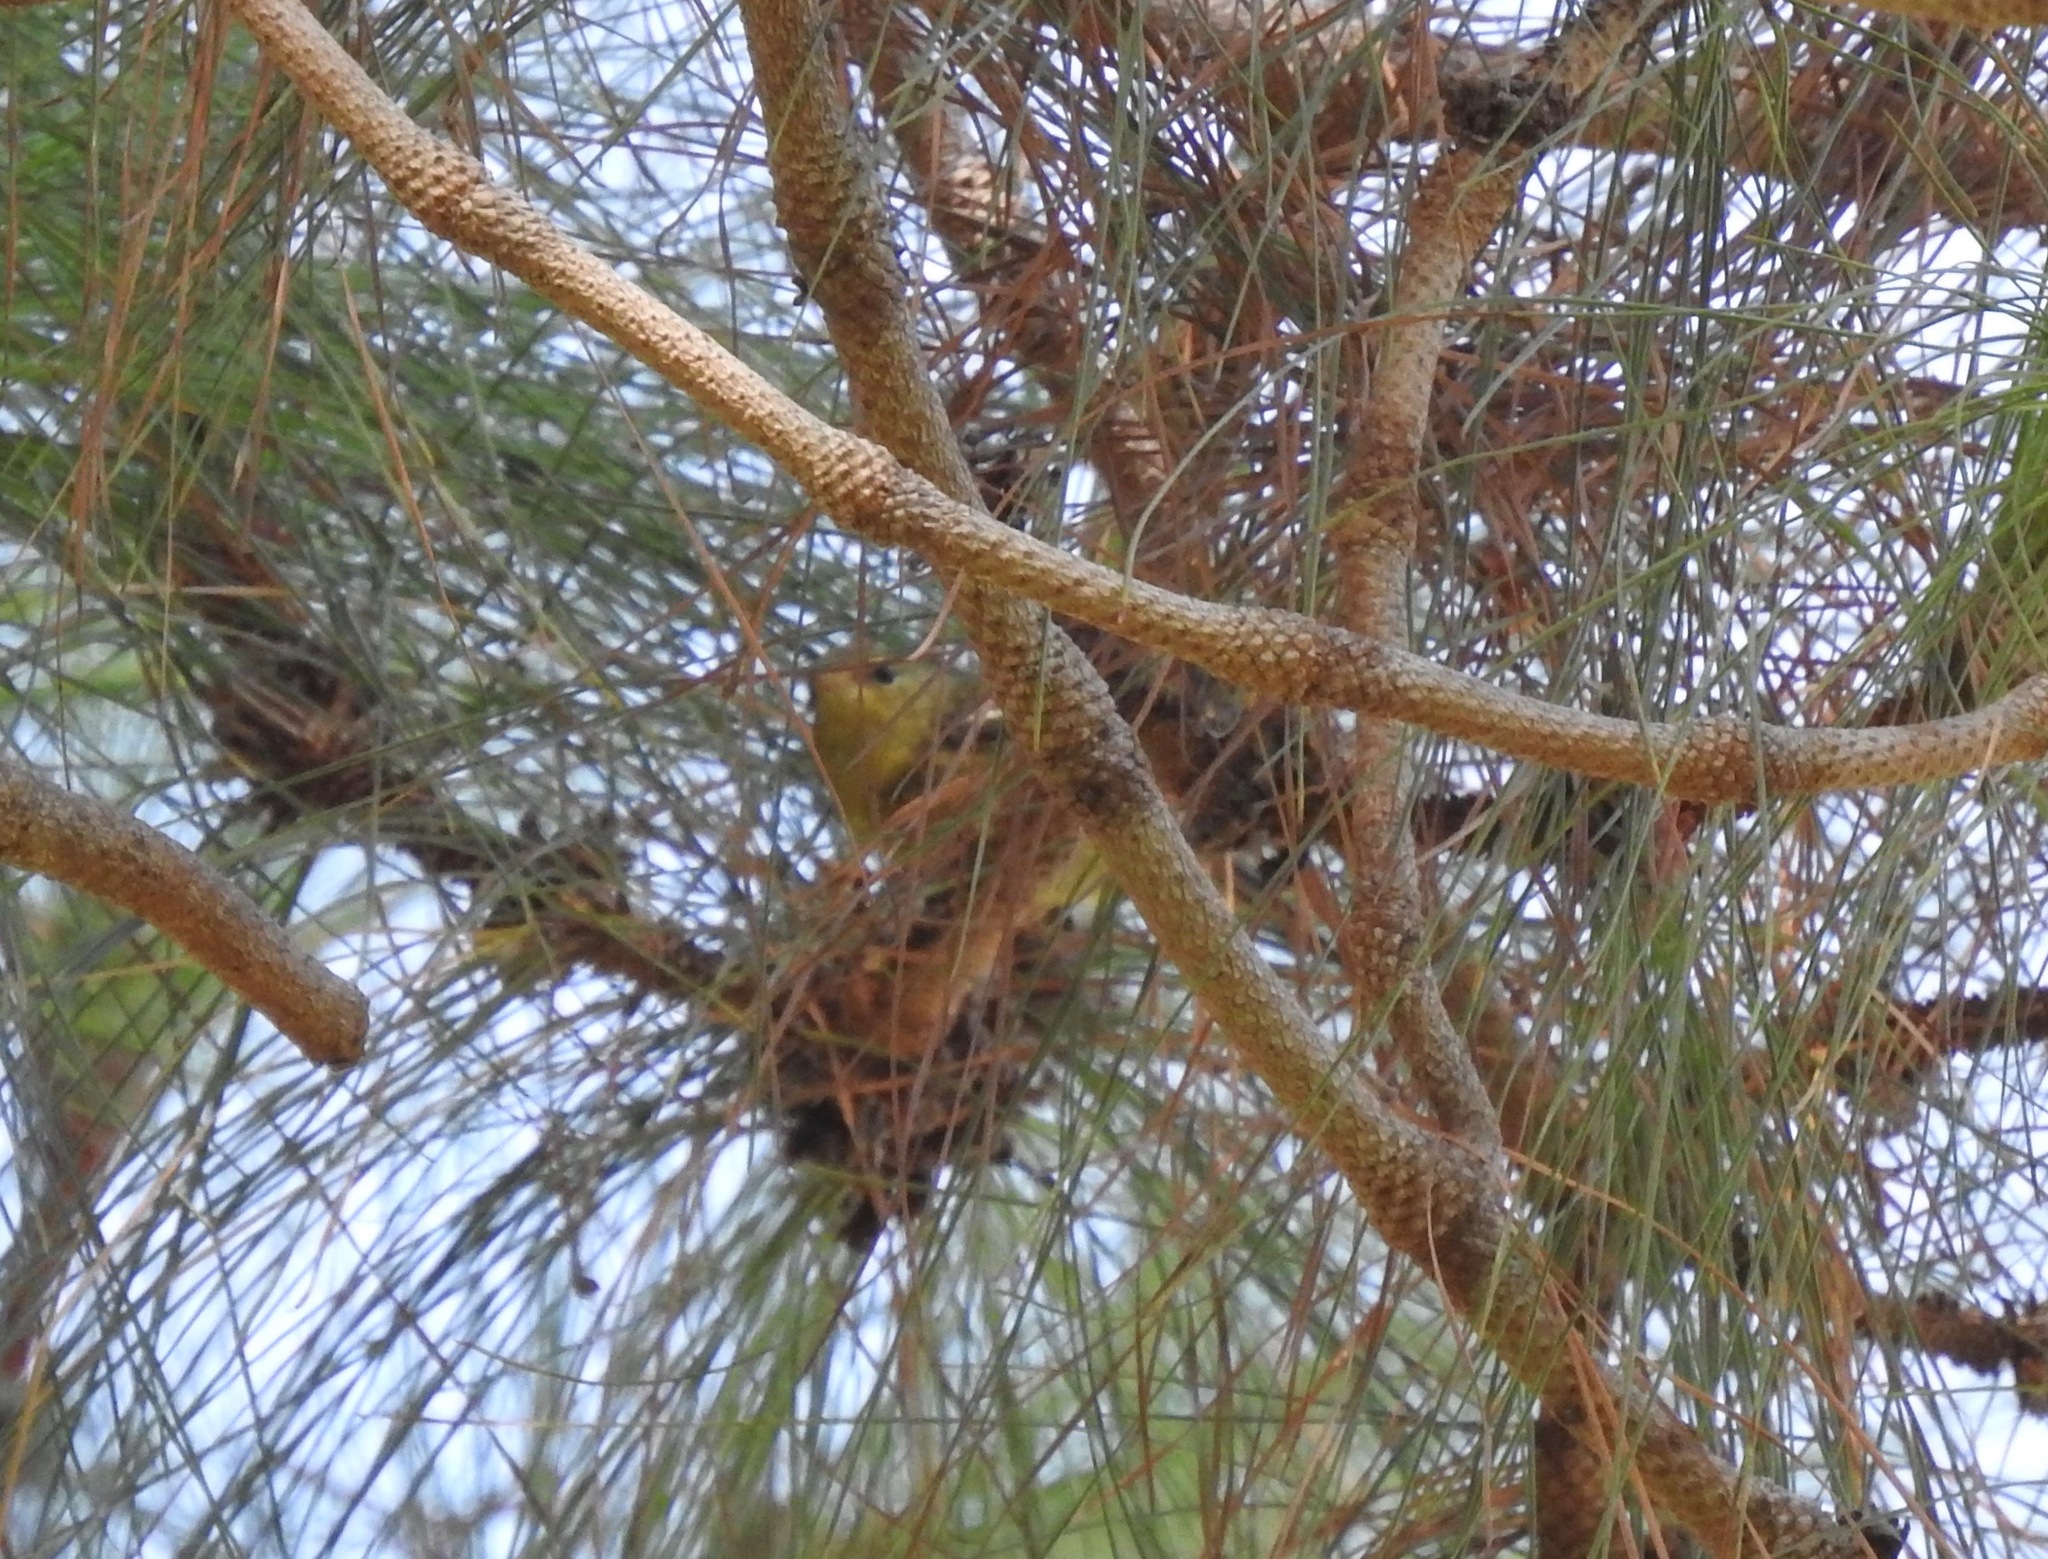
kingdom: Animalia
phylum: Chordata
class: Aves
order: Passeriformes
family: Parulidae
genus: Setophaga
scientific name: Setophaga
